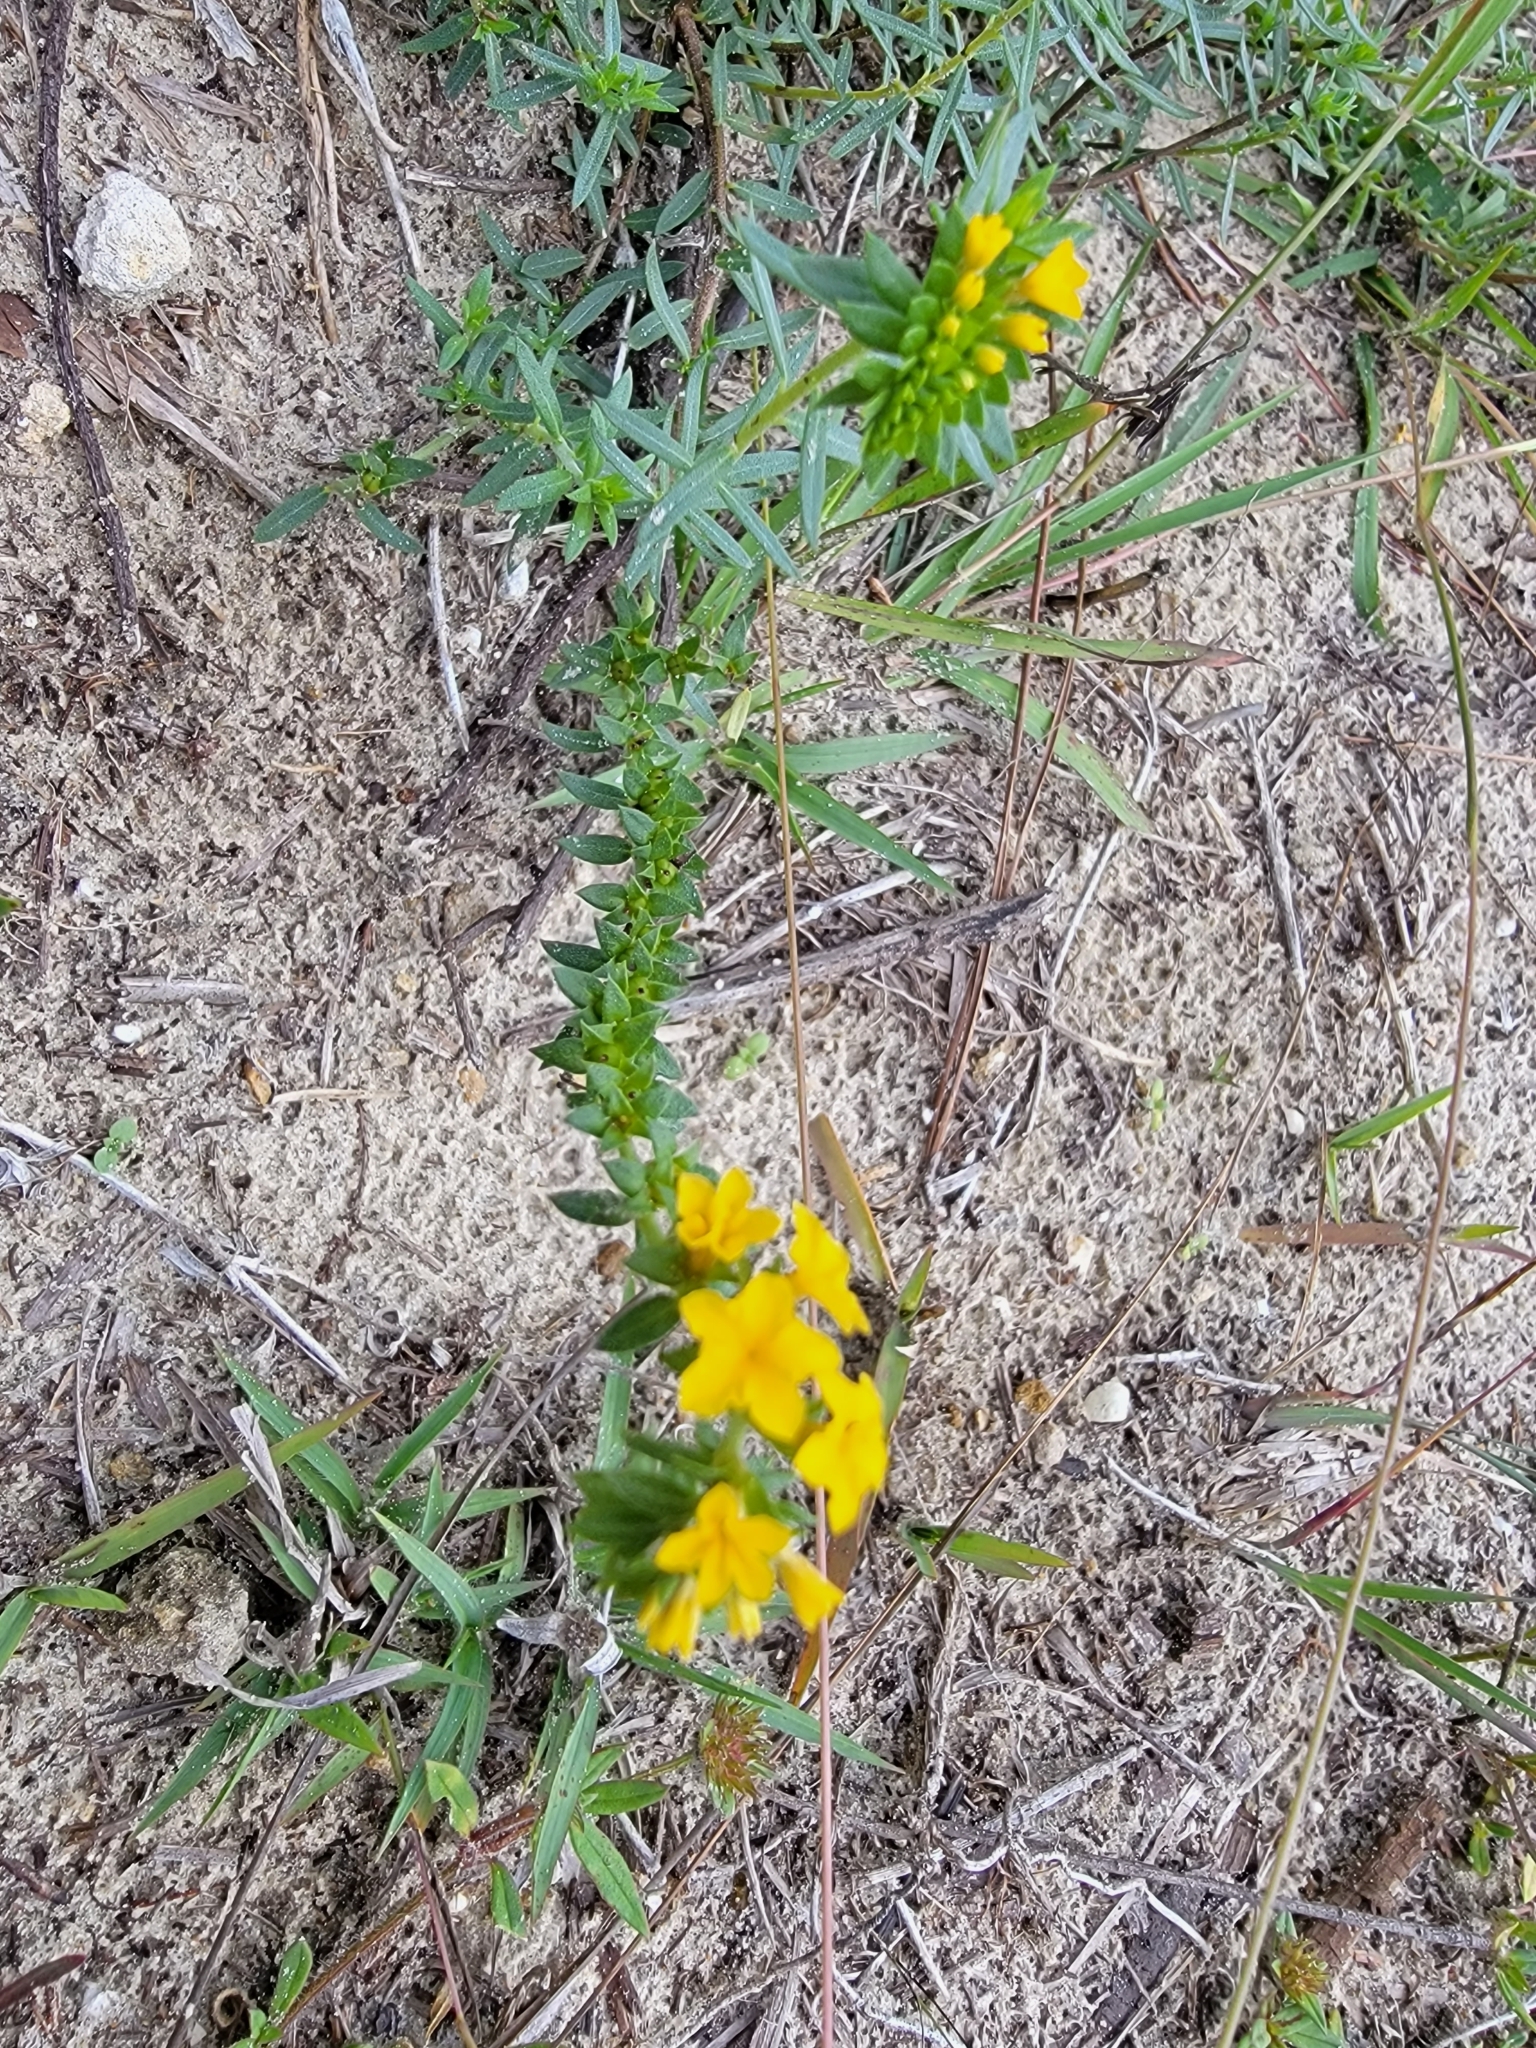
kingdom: Plantae
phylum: Tracheophyta
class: Magnoliopsida
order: Boraginales
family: Heliotropiaceae
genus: Euploca
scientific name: Euploca polyphylla
